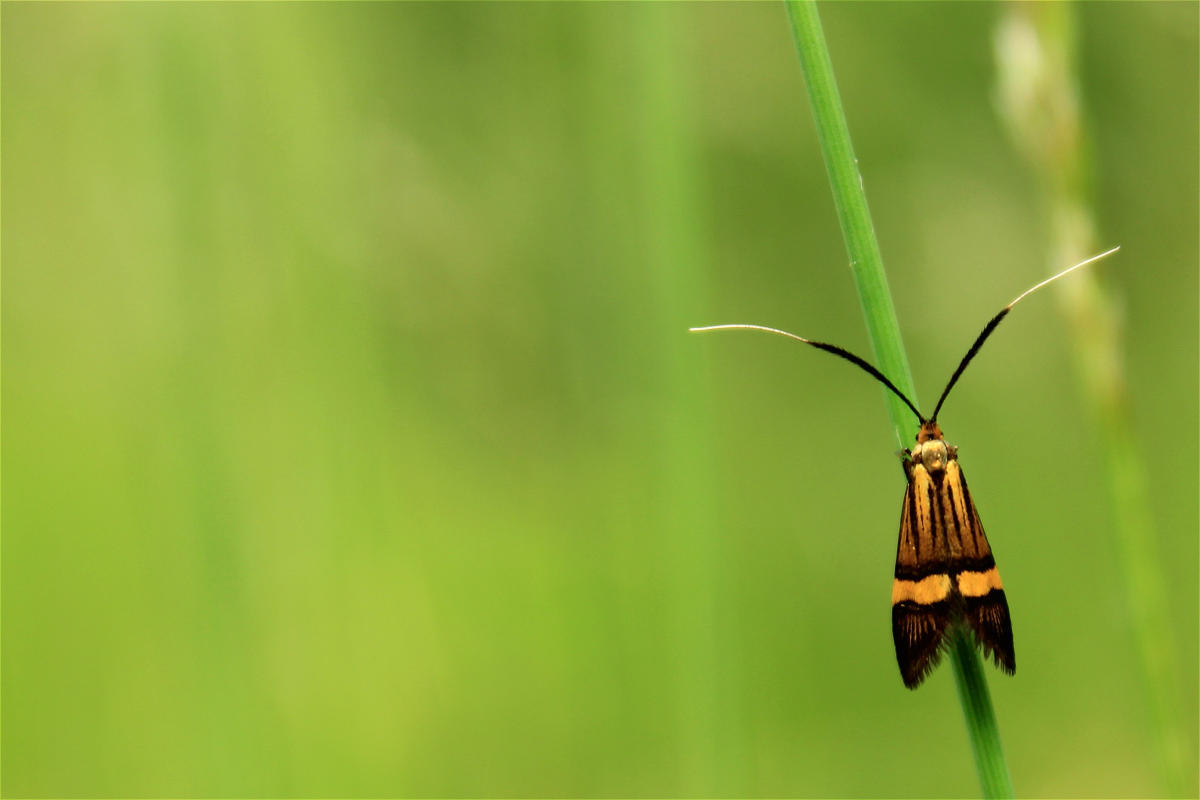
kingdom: Animalia
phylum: Arthropoda
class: Insecta
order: Lepidoptera
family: Adelidae
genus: Nemophora
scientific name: Nemophora
